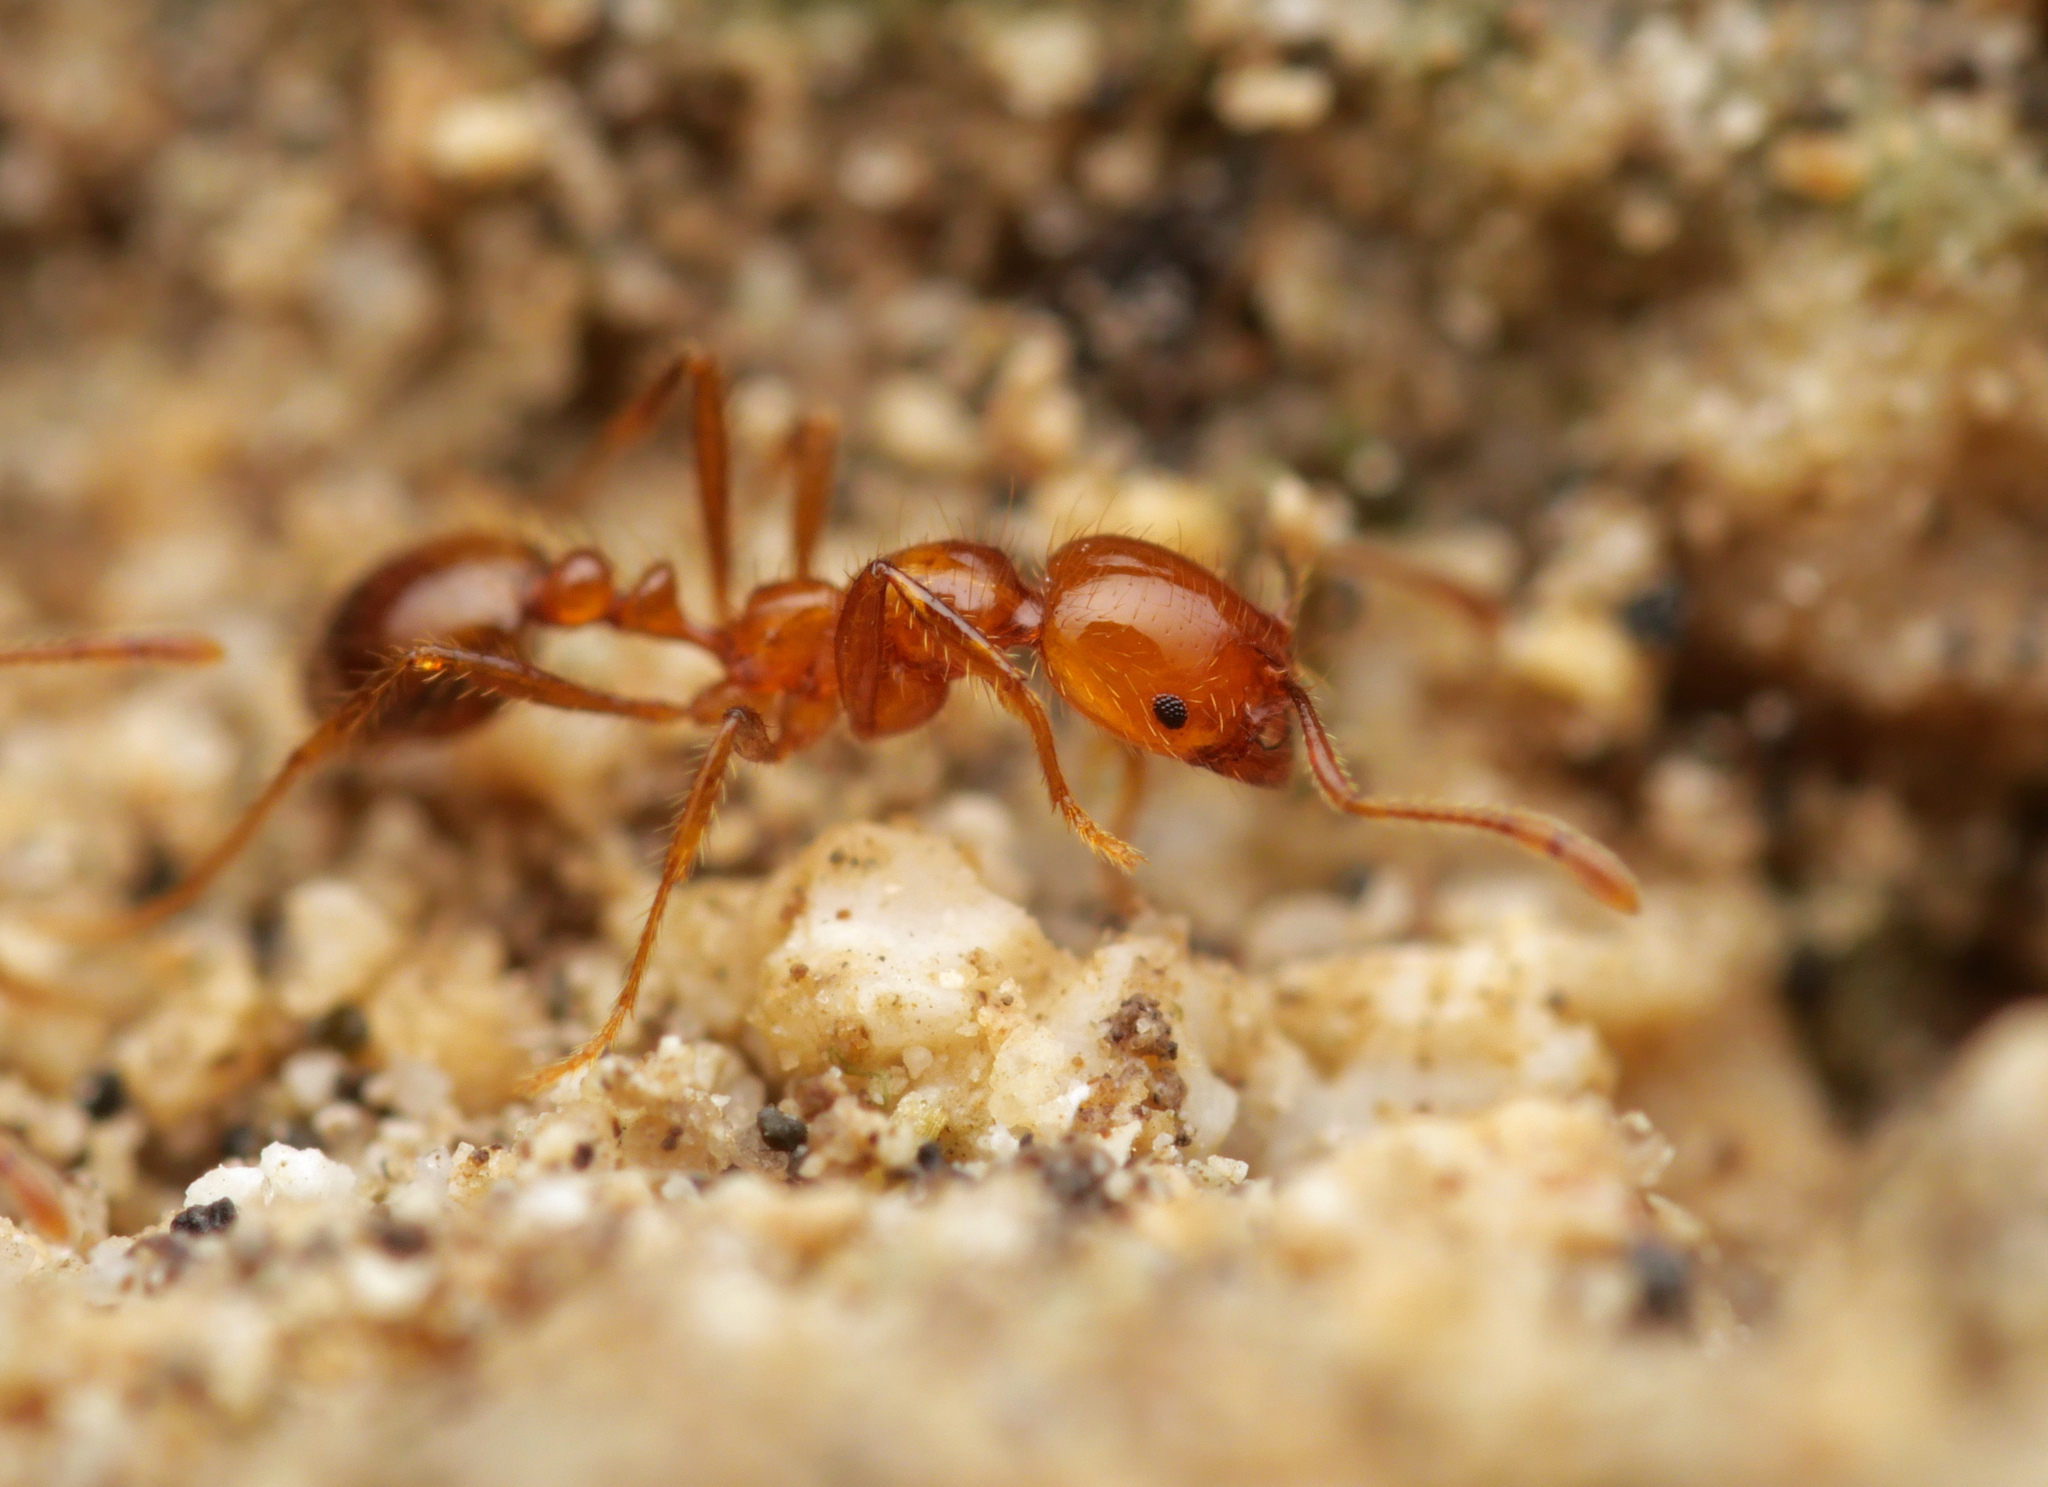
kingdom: Animalia
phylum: Arthropoda
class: Insecta
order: Hymenoptera
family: Formicidae
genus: Solenopsis
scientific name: Solenopsis geminata
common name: Tropical fire ant
